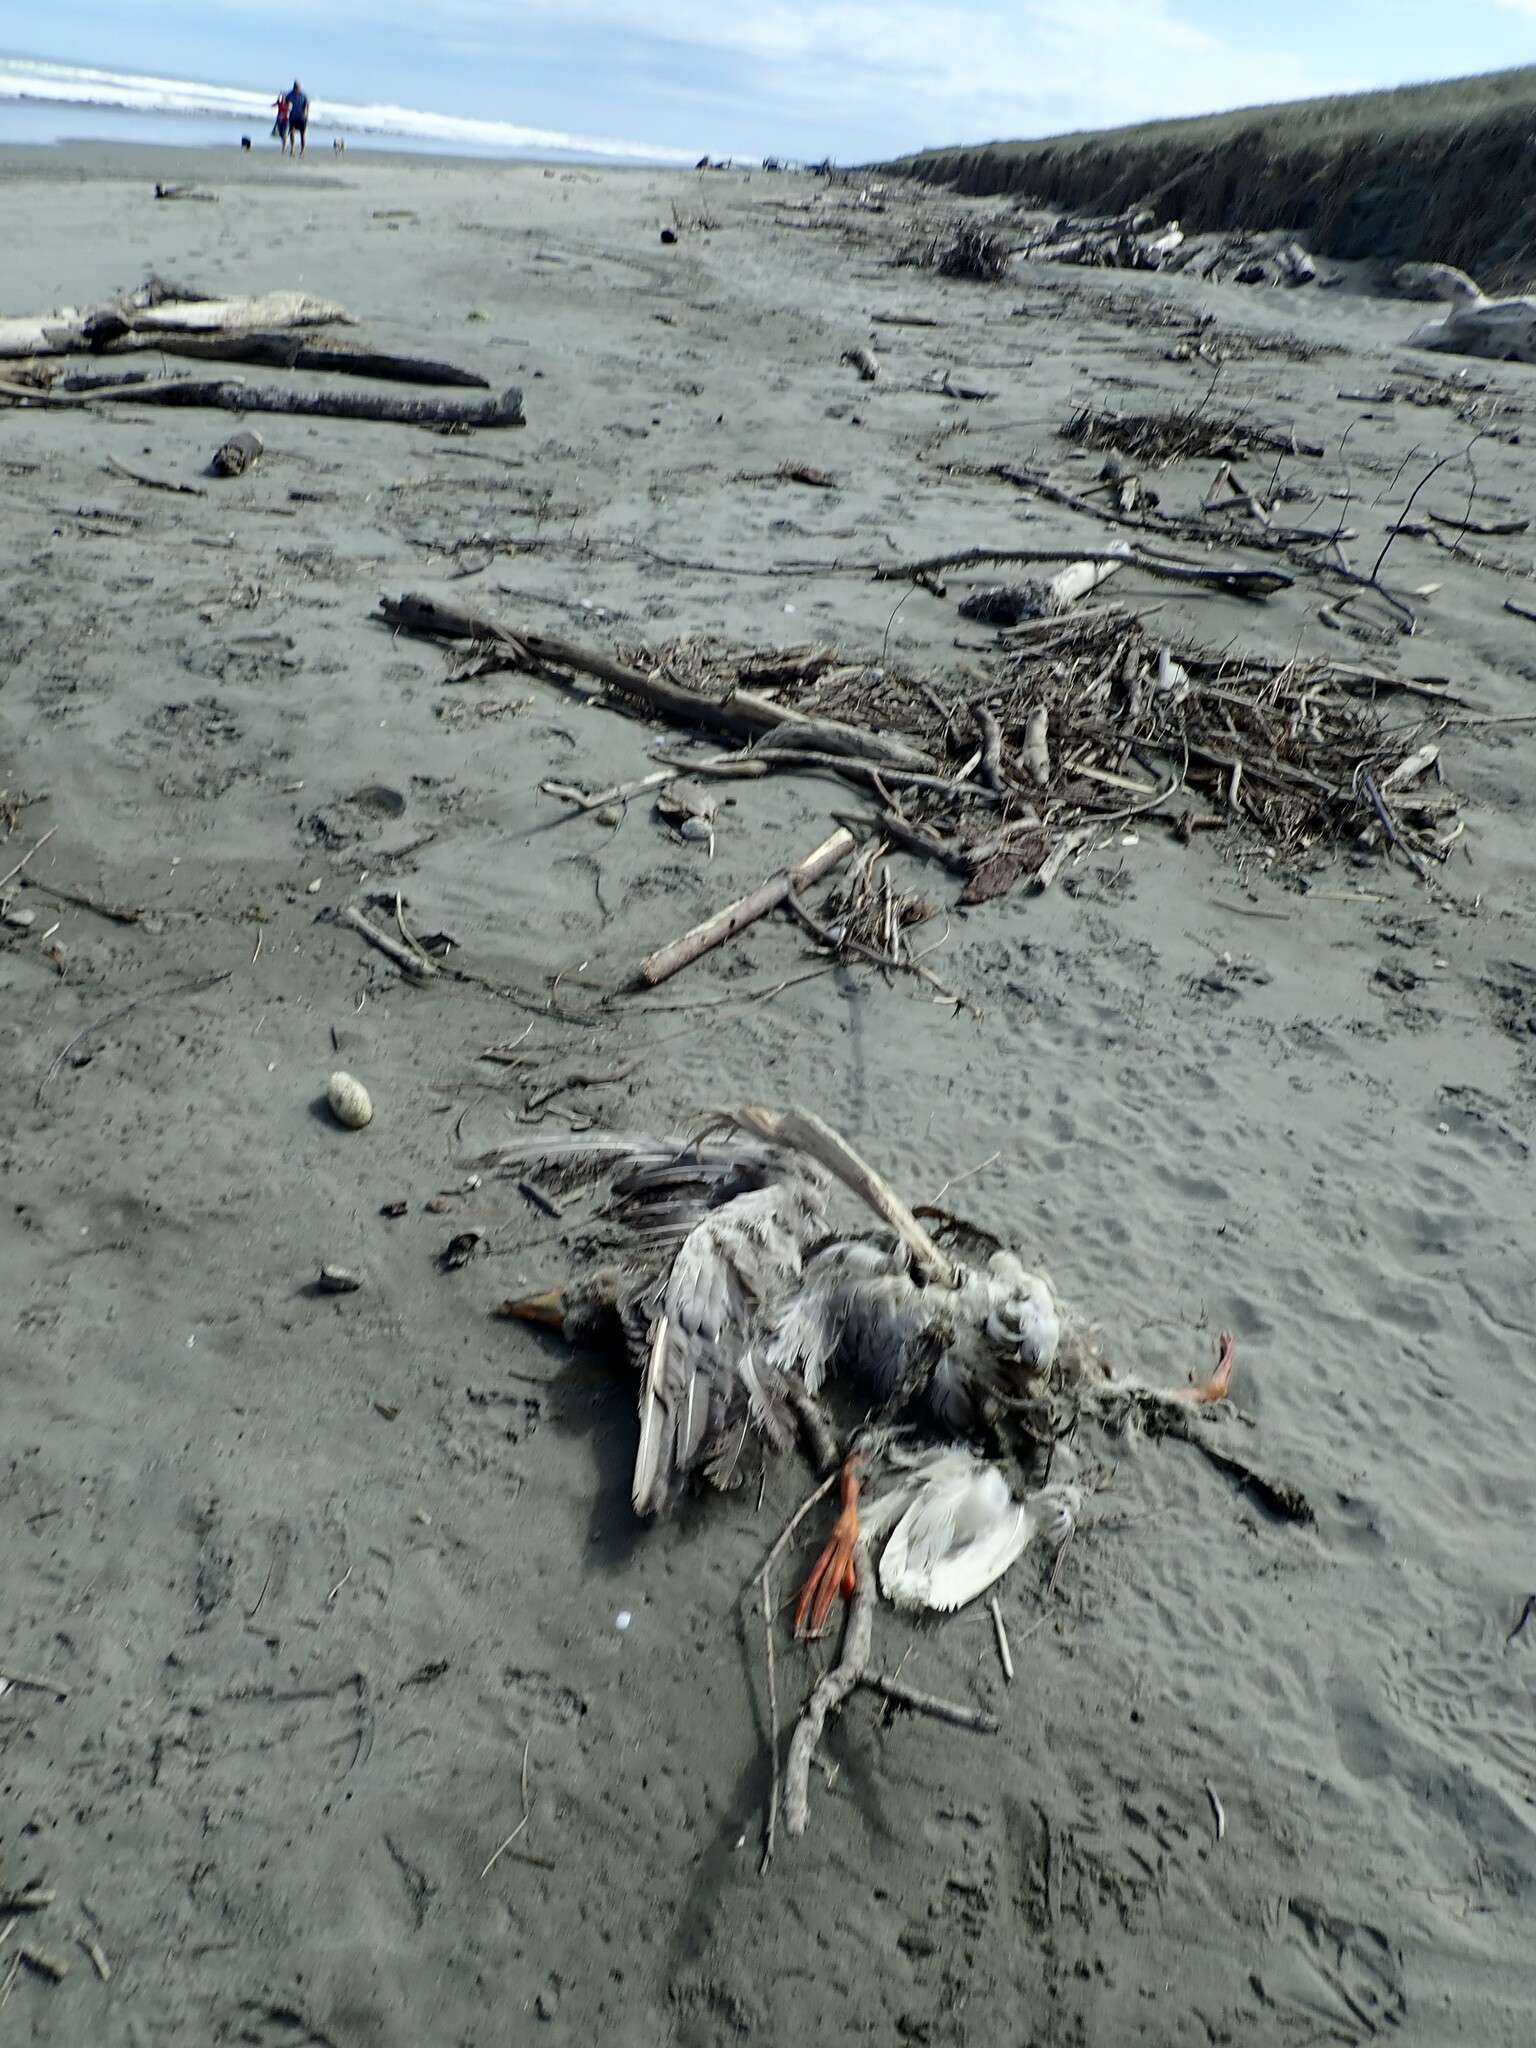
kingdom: Animalia
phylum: Chordata
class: Aves
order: Anseriformes
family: Anatidae
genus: Anser
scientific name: Anser anser
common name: Greylag goose
